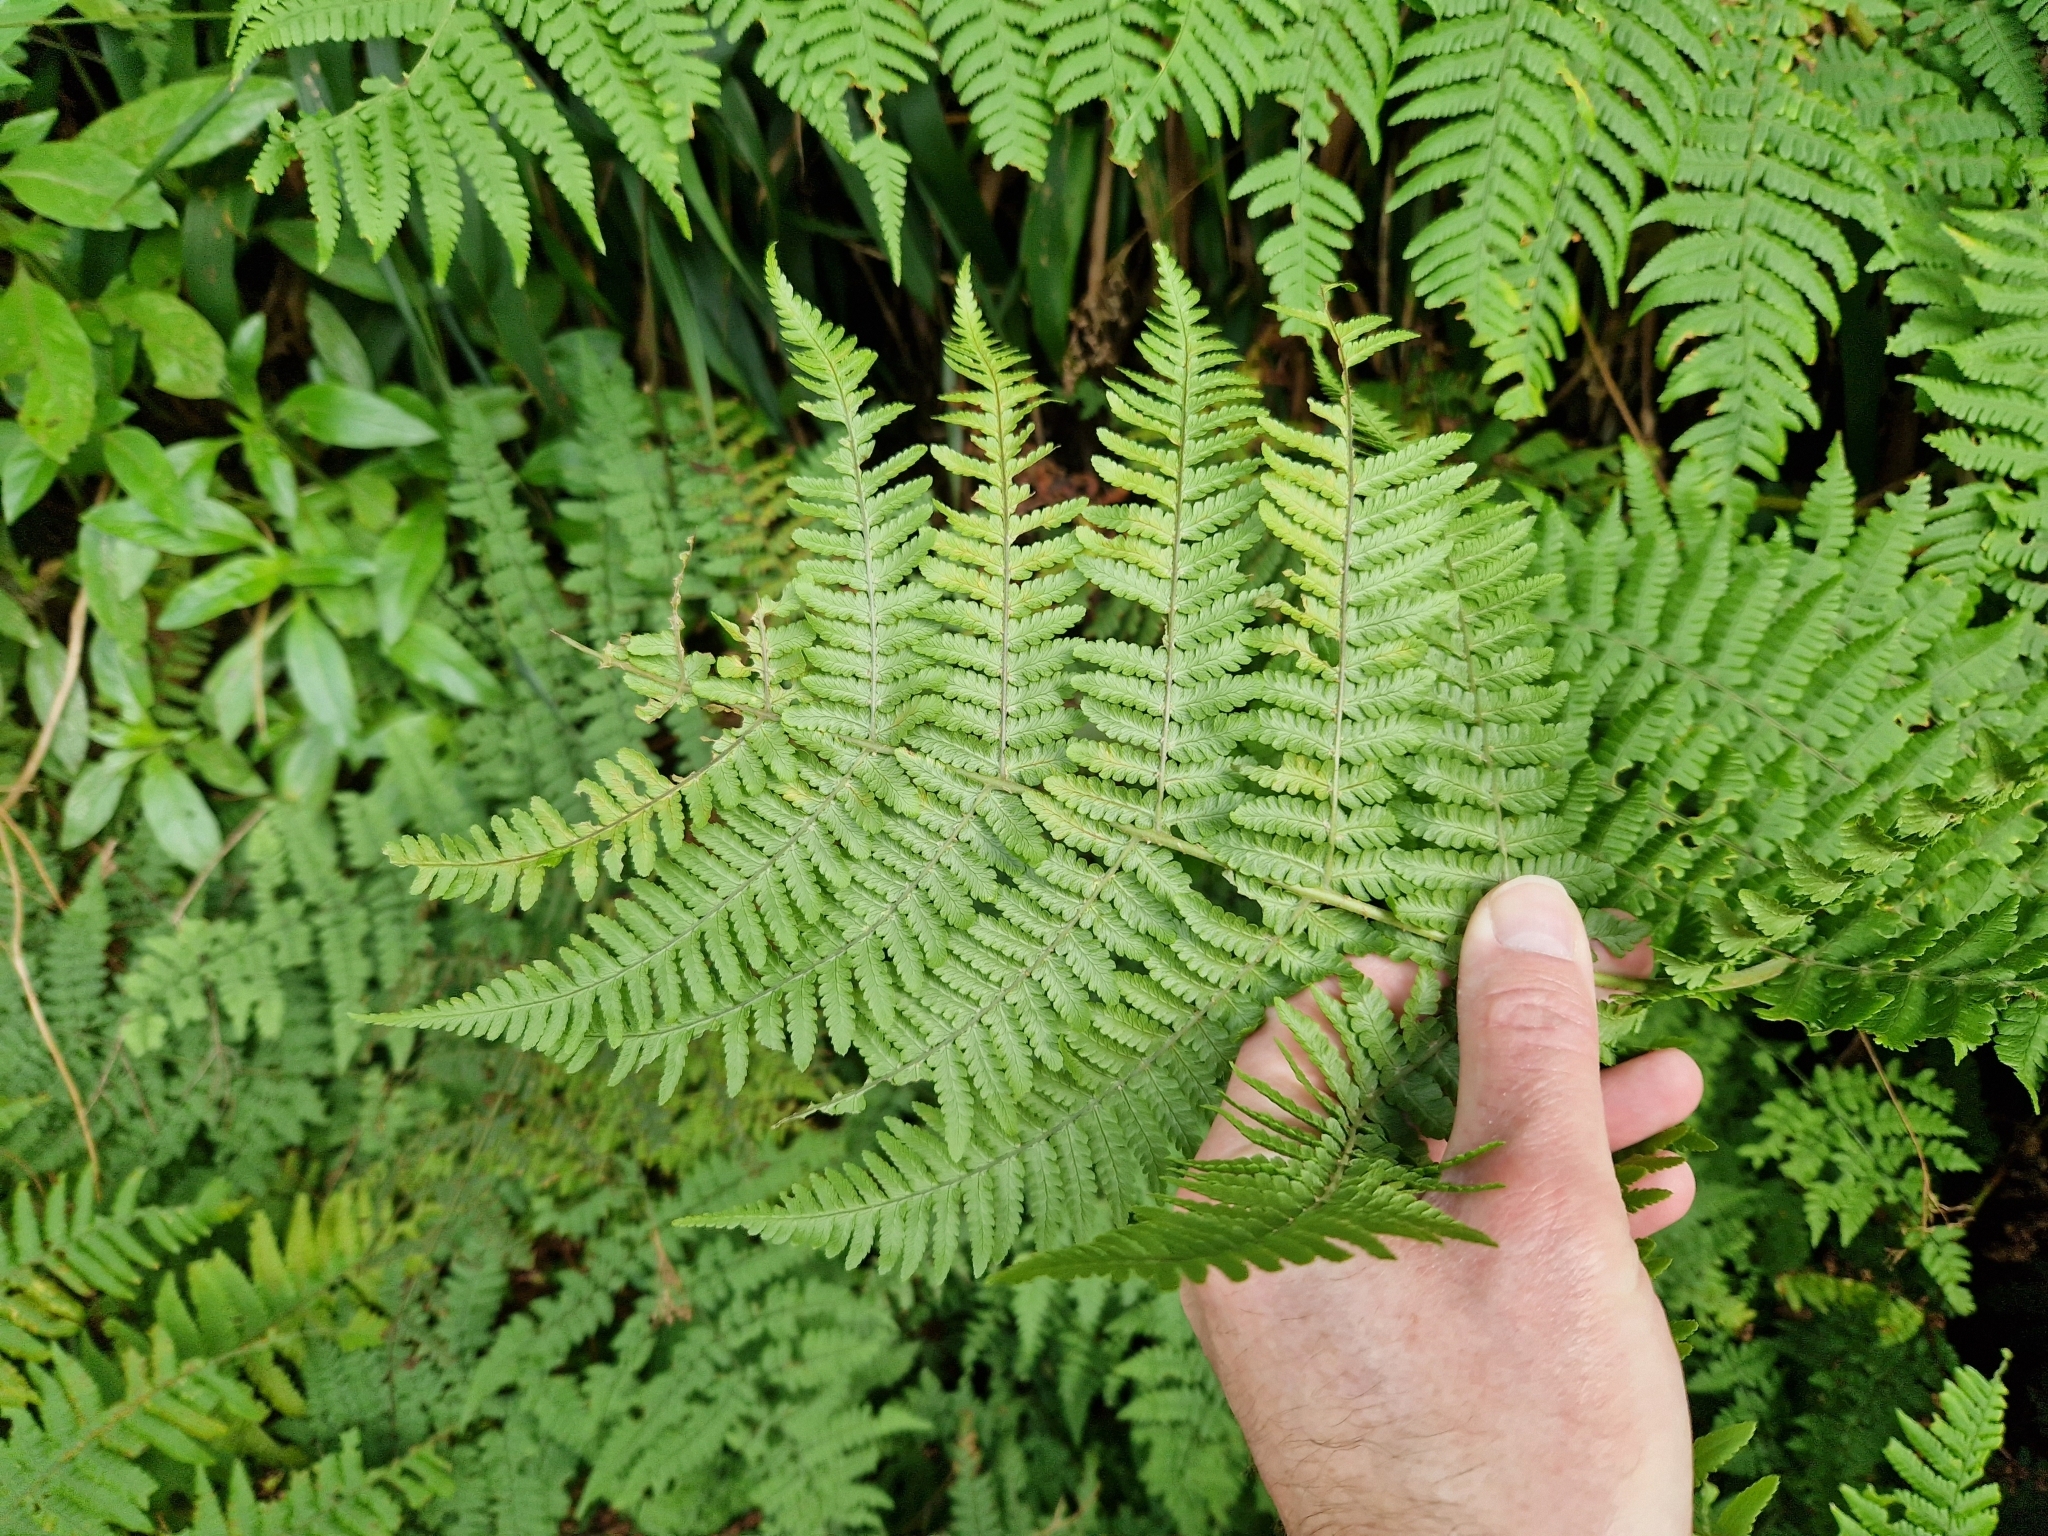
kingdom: Plantae
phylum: Tracheophyta
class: Polypodiopsida
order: Polypodiales
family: Dryopteridaceae
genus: Dryopteris
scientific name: Dryopteris oligodonta
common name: Canarian male-fern
